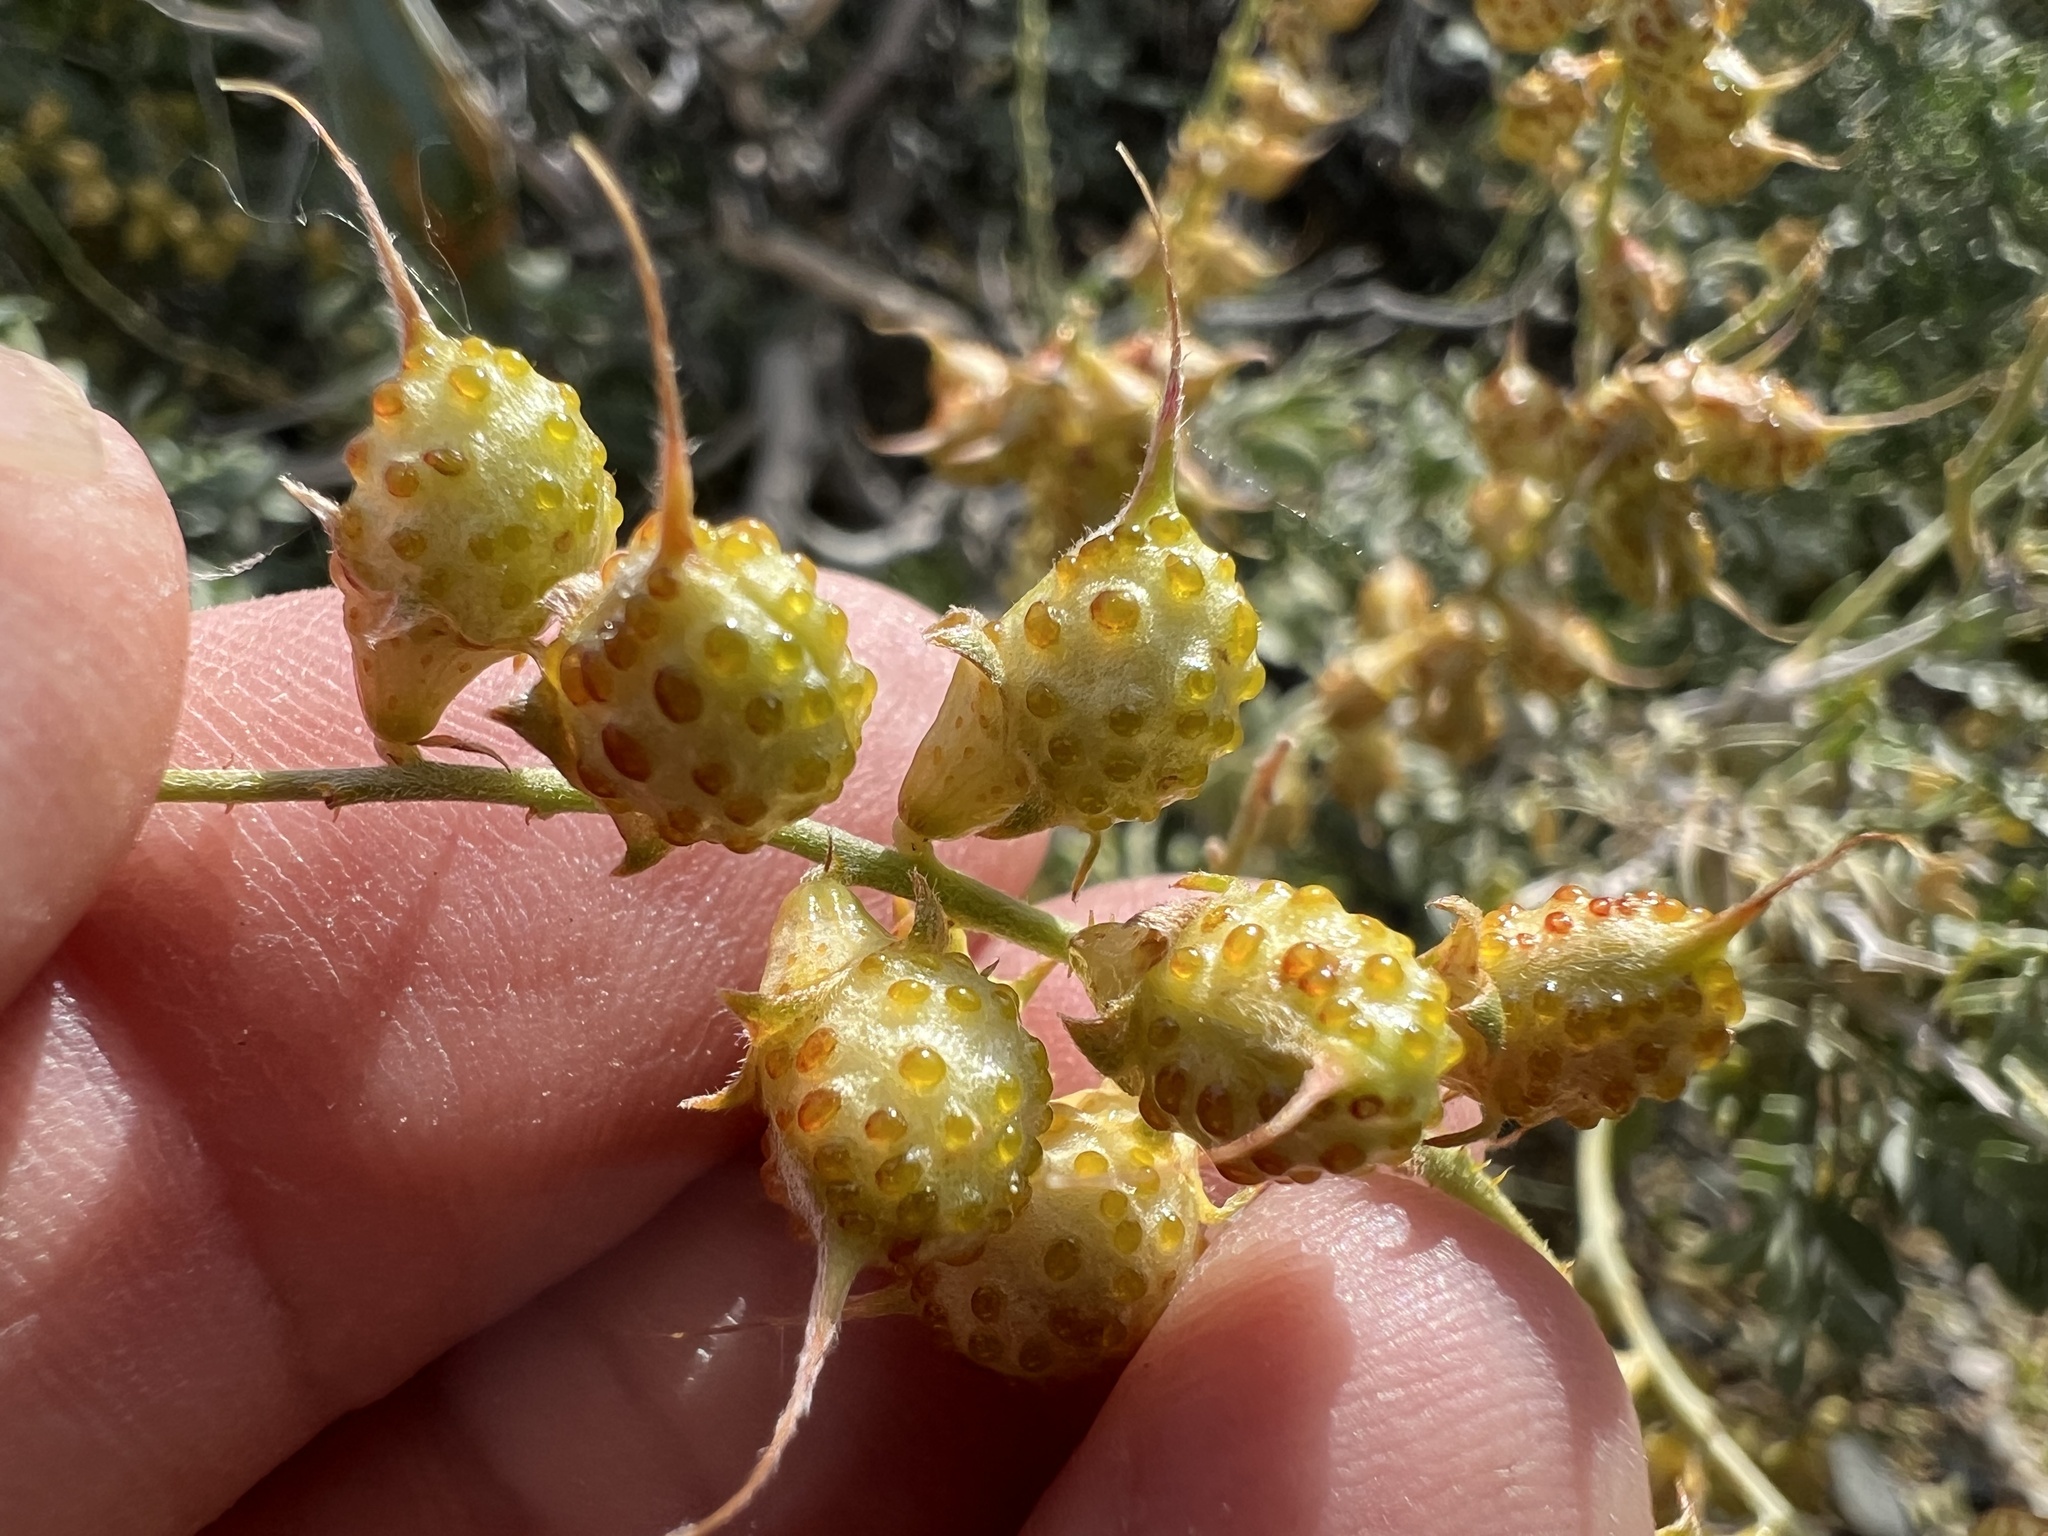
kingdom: Plantae
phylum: Tracheophyta
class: Magnoliopsida
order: Fabales
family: Fabaceae
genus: Psorothamnus
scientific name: Psorothamnus arborescens
